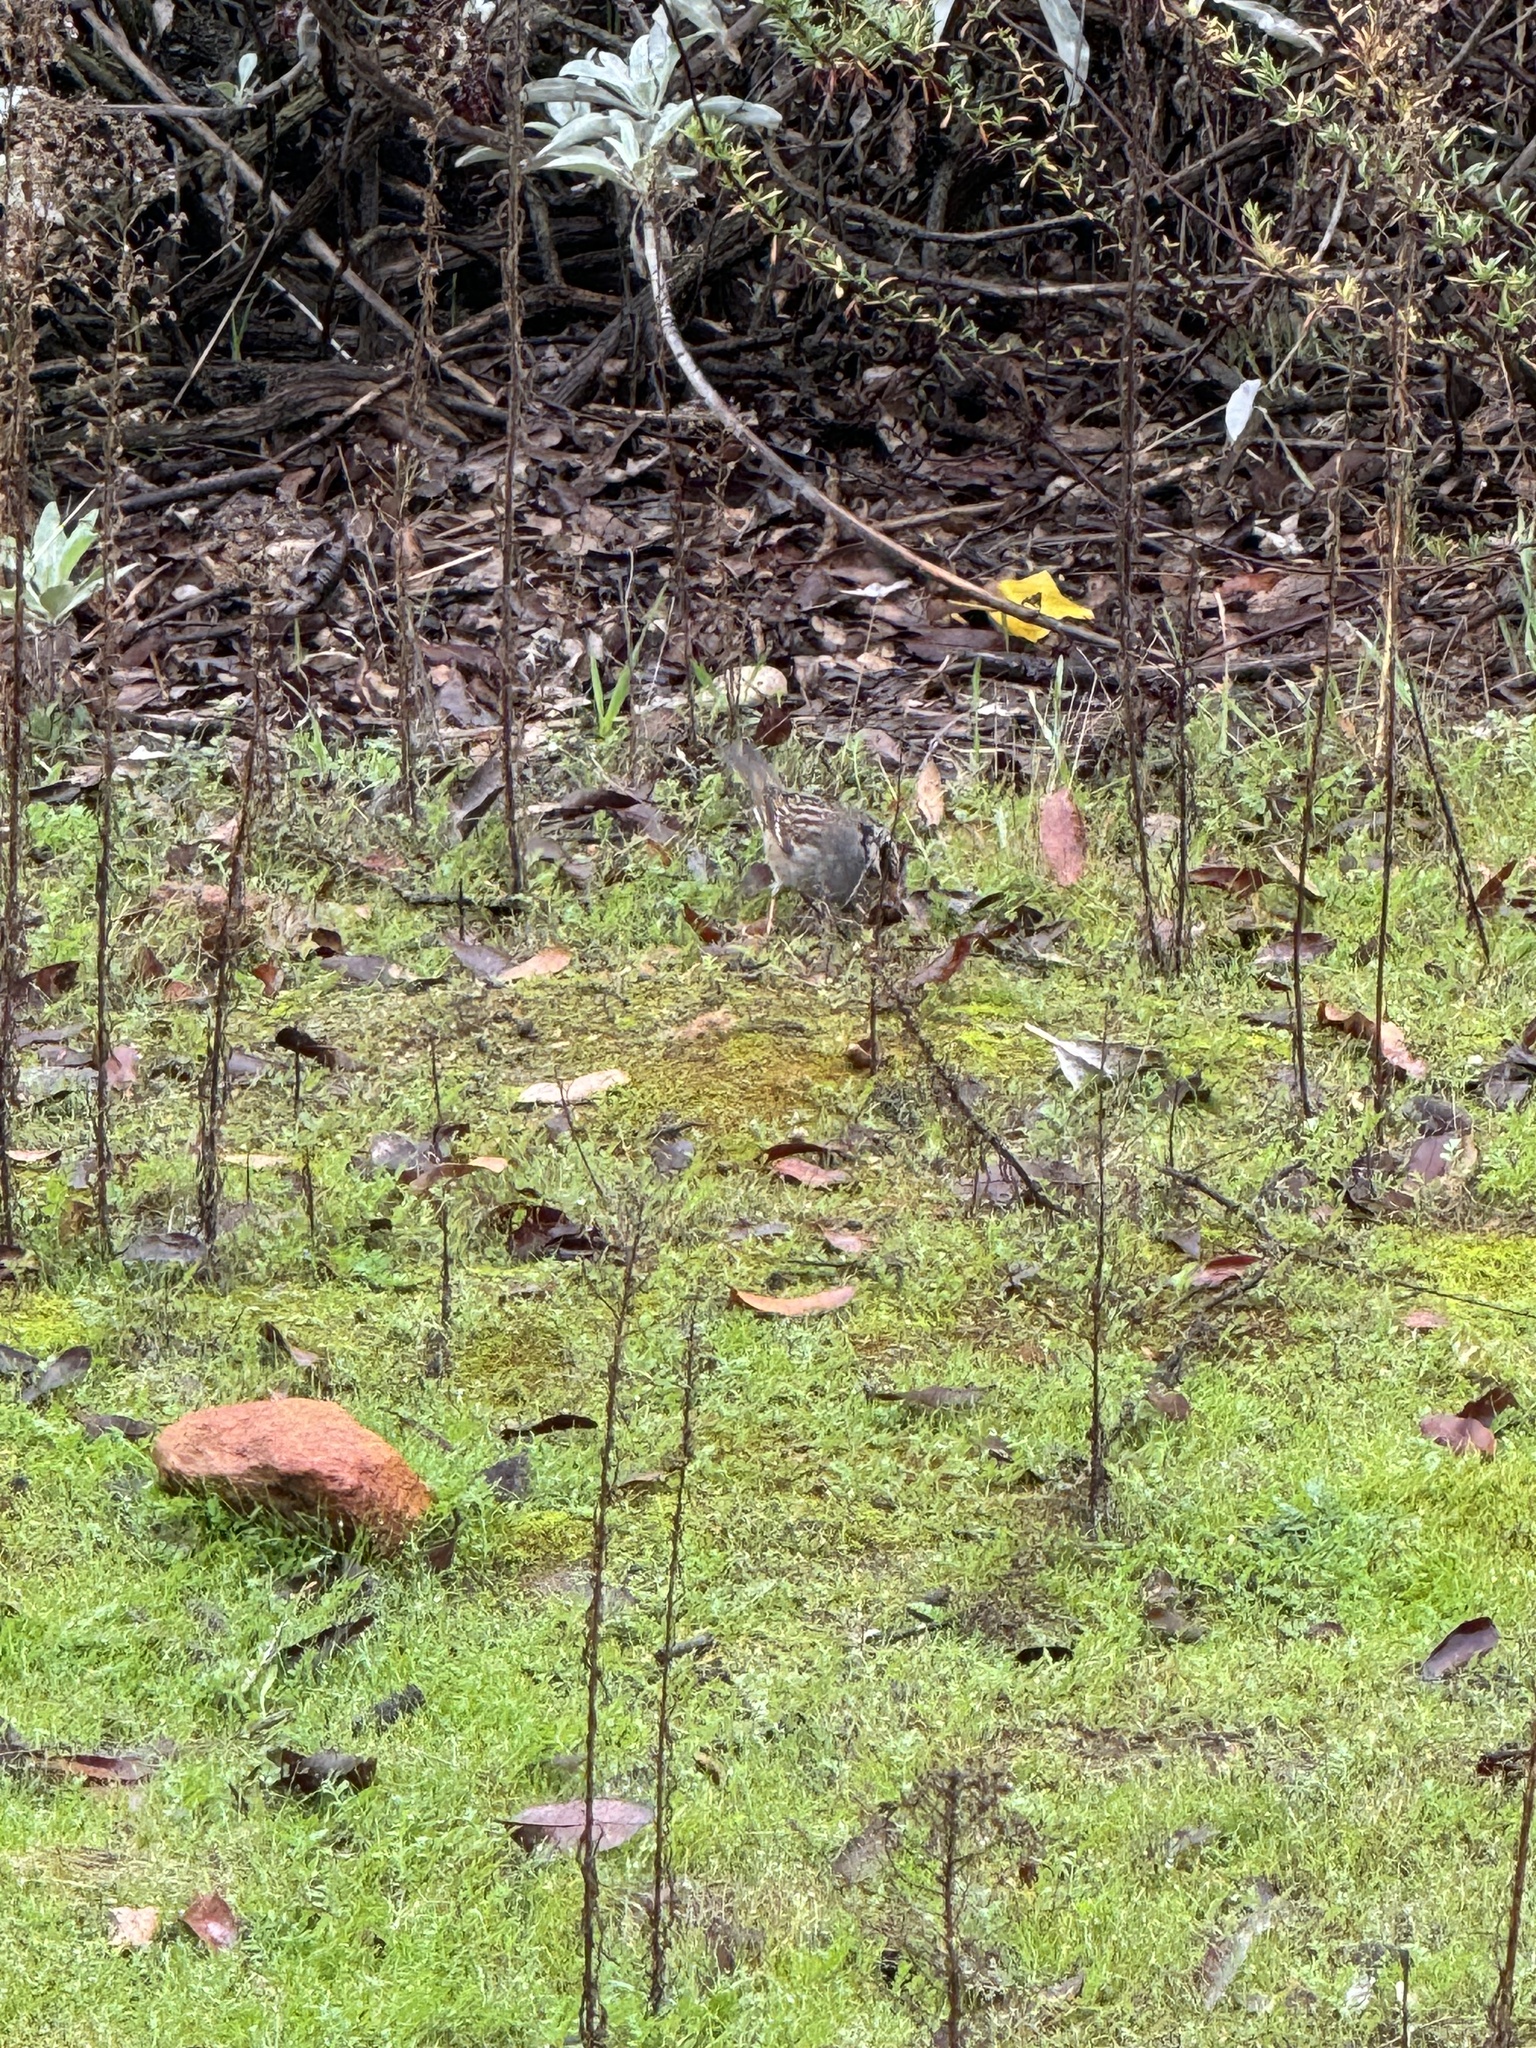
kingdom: Animalia
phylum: Chordata
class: Aves
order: Passeriformes
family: Passerellidae
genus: Zonotrichia
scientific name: Zonotrichia leucophrys
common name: White-crowned sparrow
